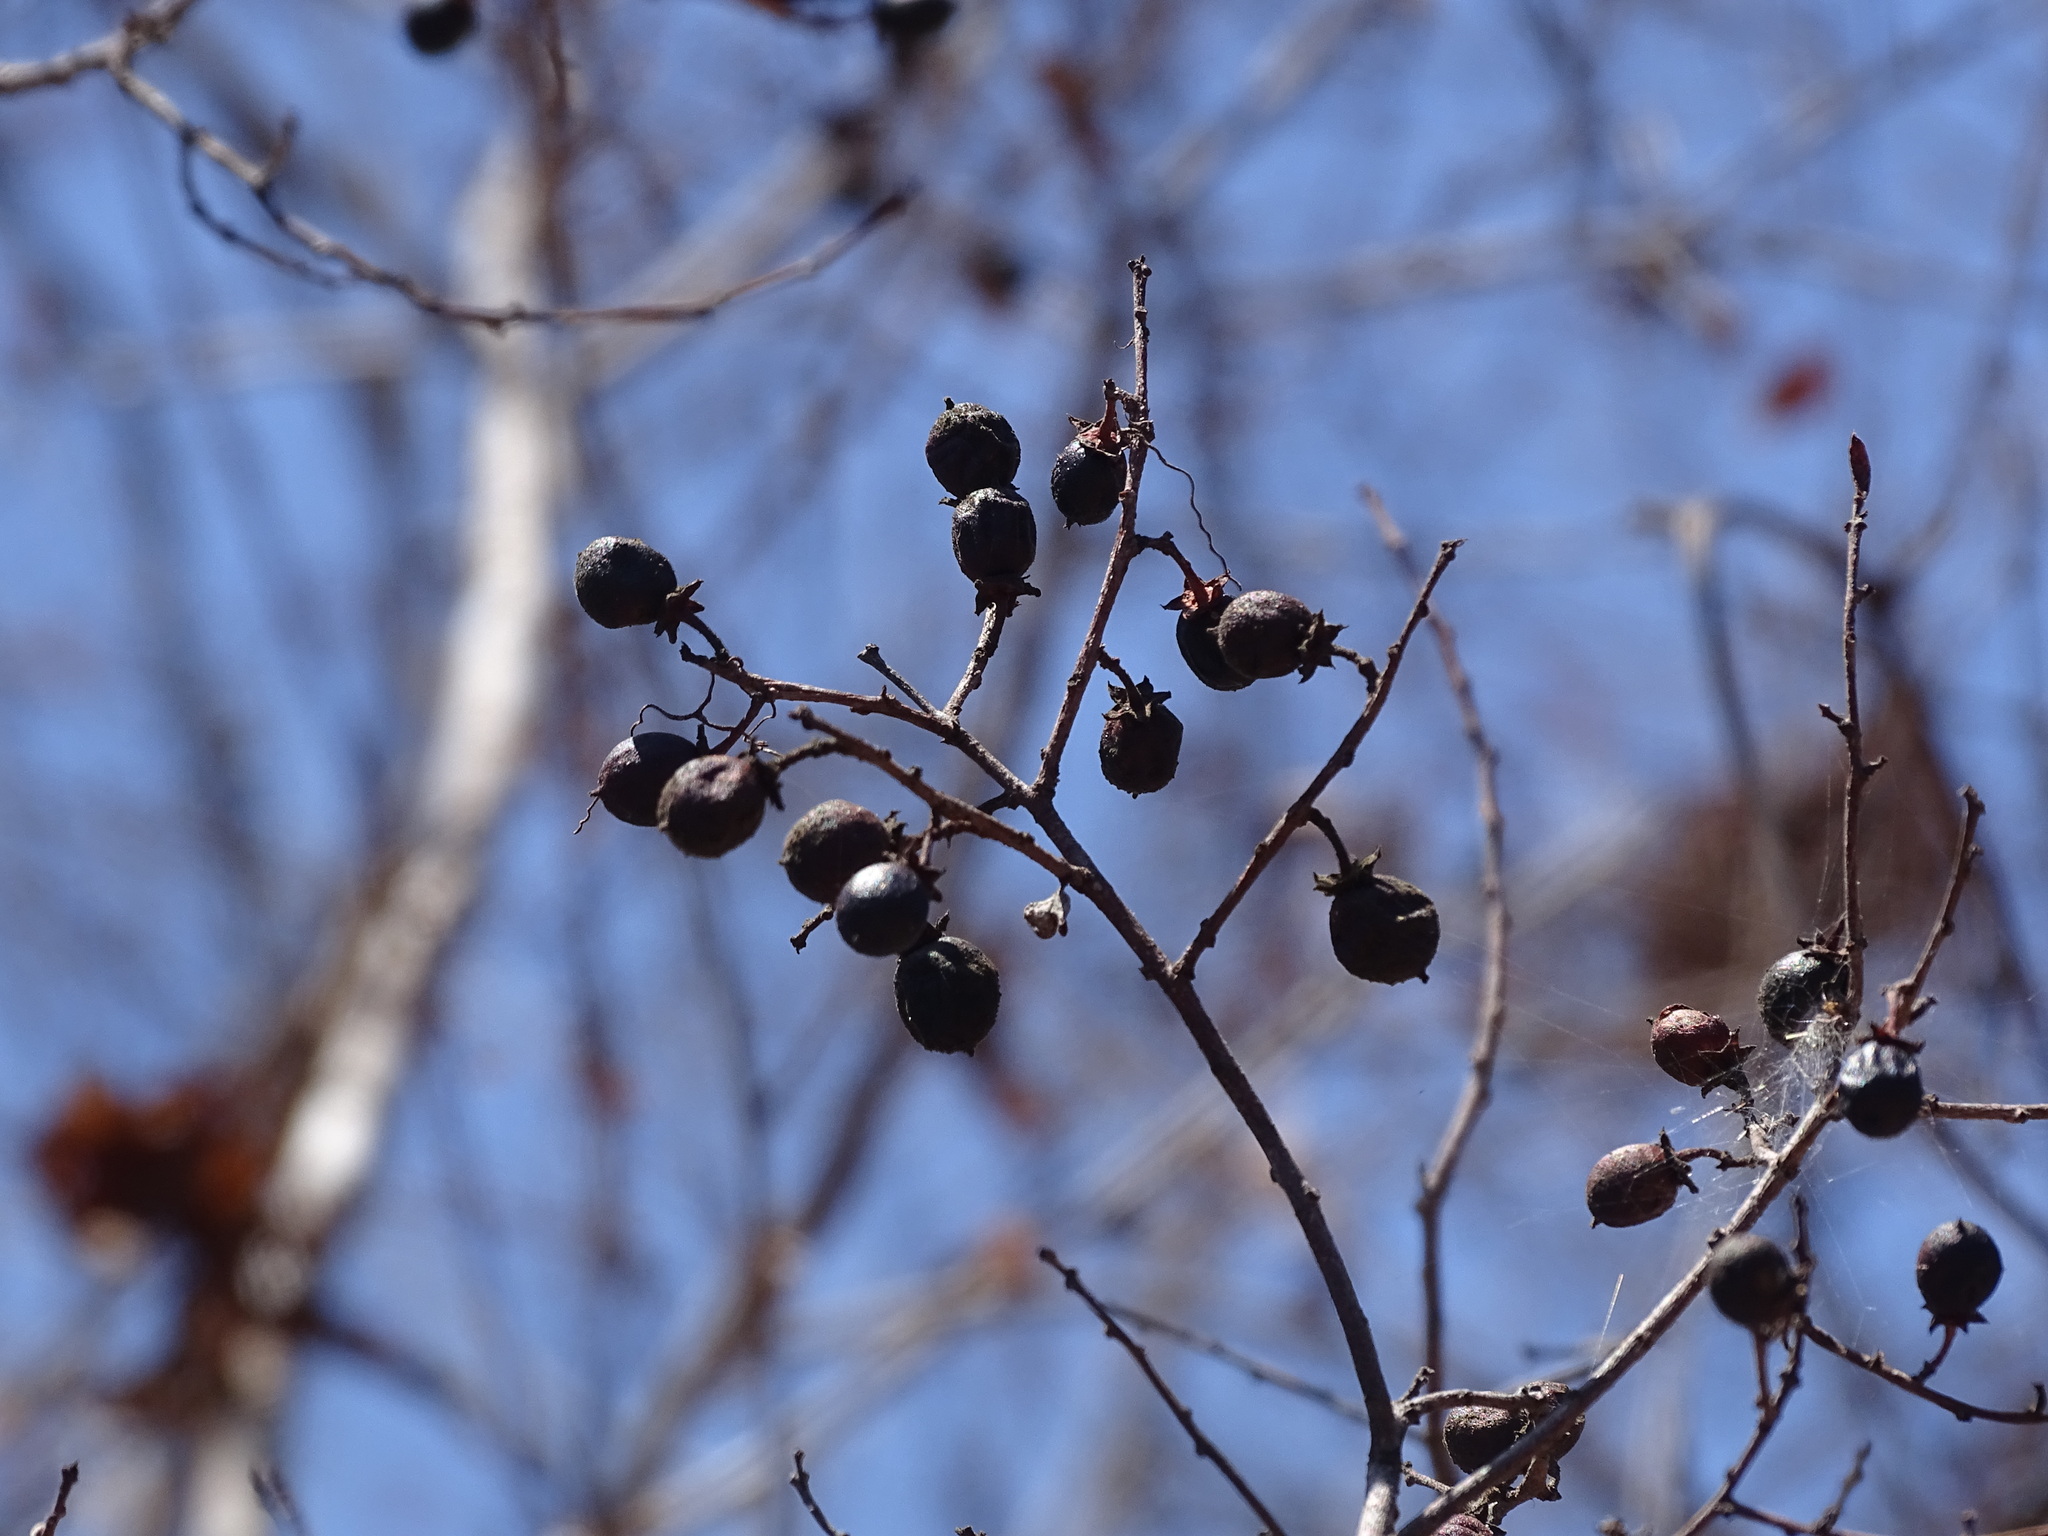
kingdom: Plantae
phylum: Tracheophyta
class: Magnoliopsida
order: Rosales
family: Rhamnaceae
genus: Karwinskia
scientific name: Karwinskia humboldtiana
